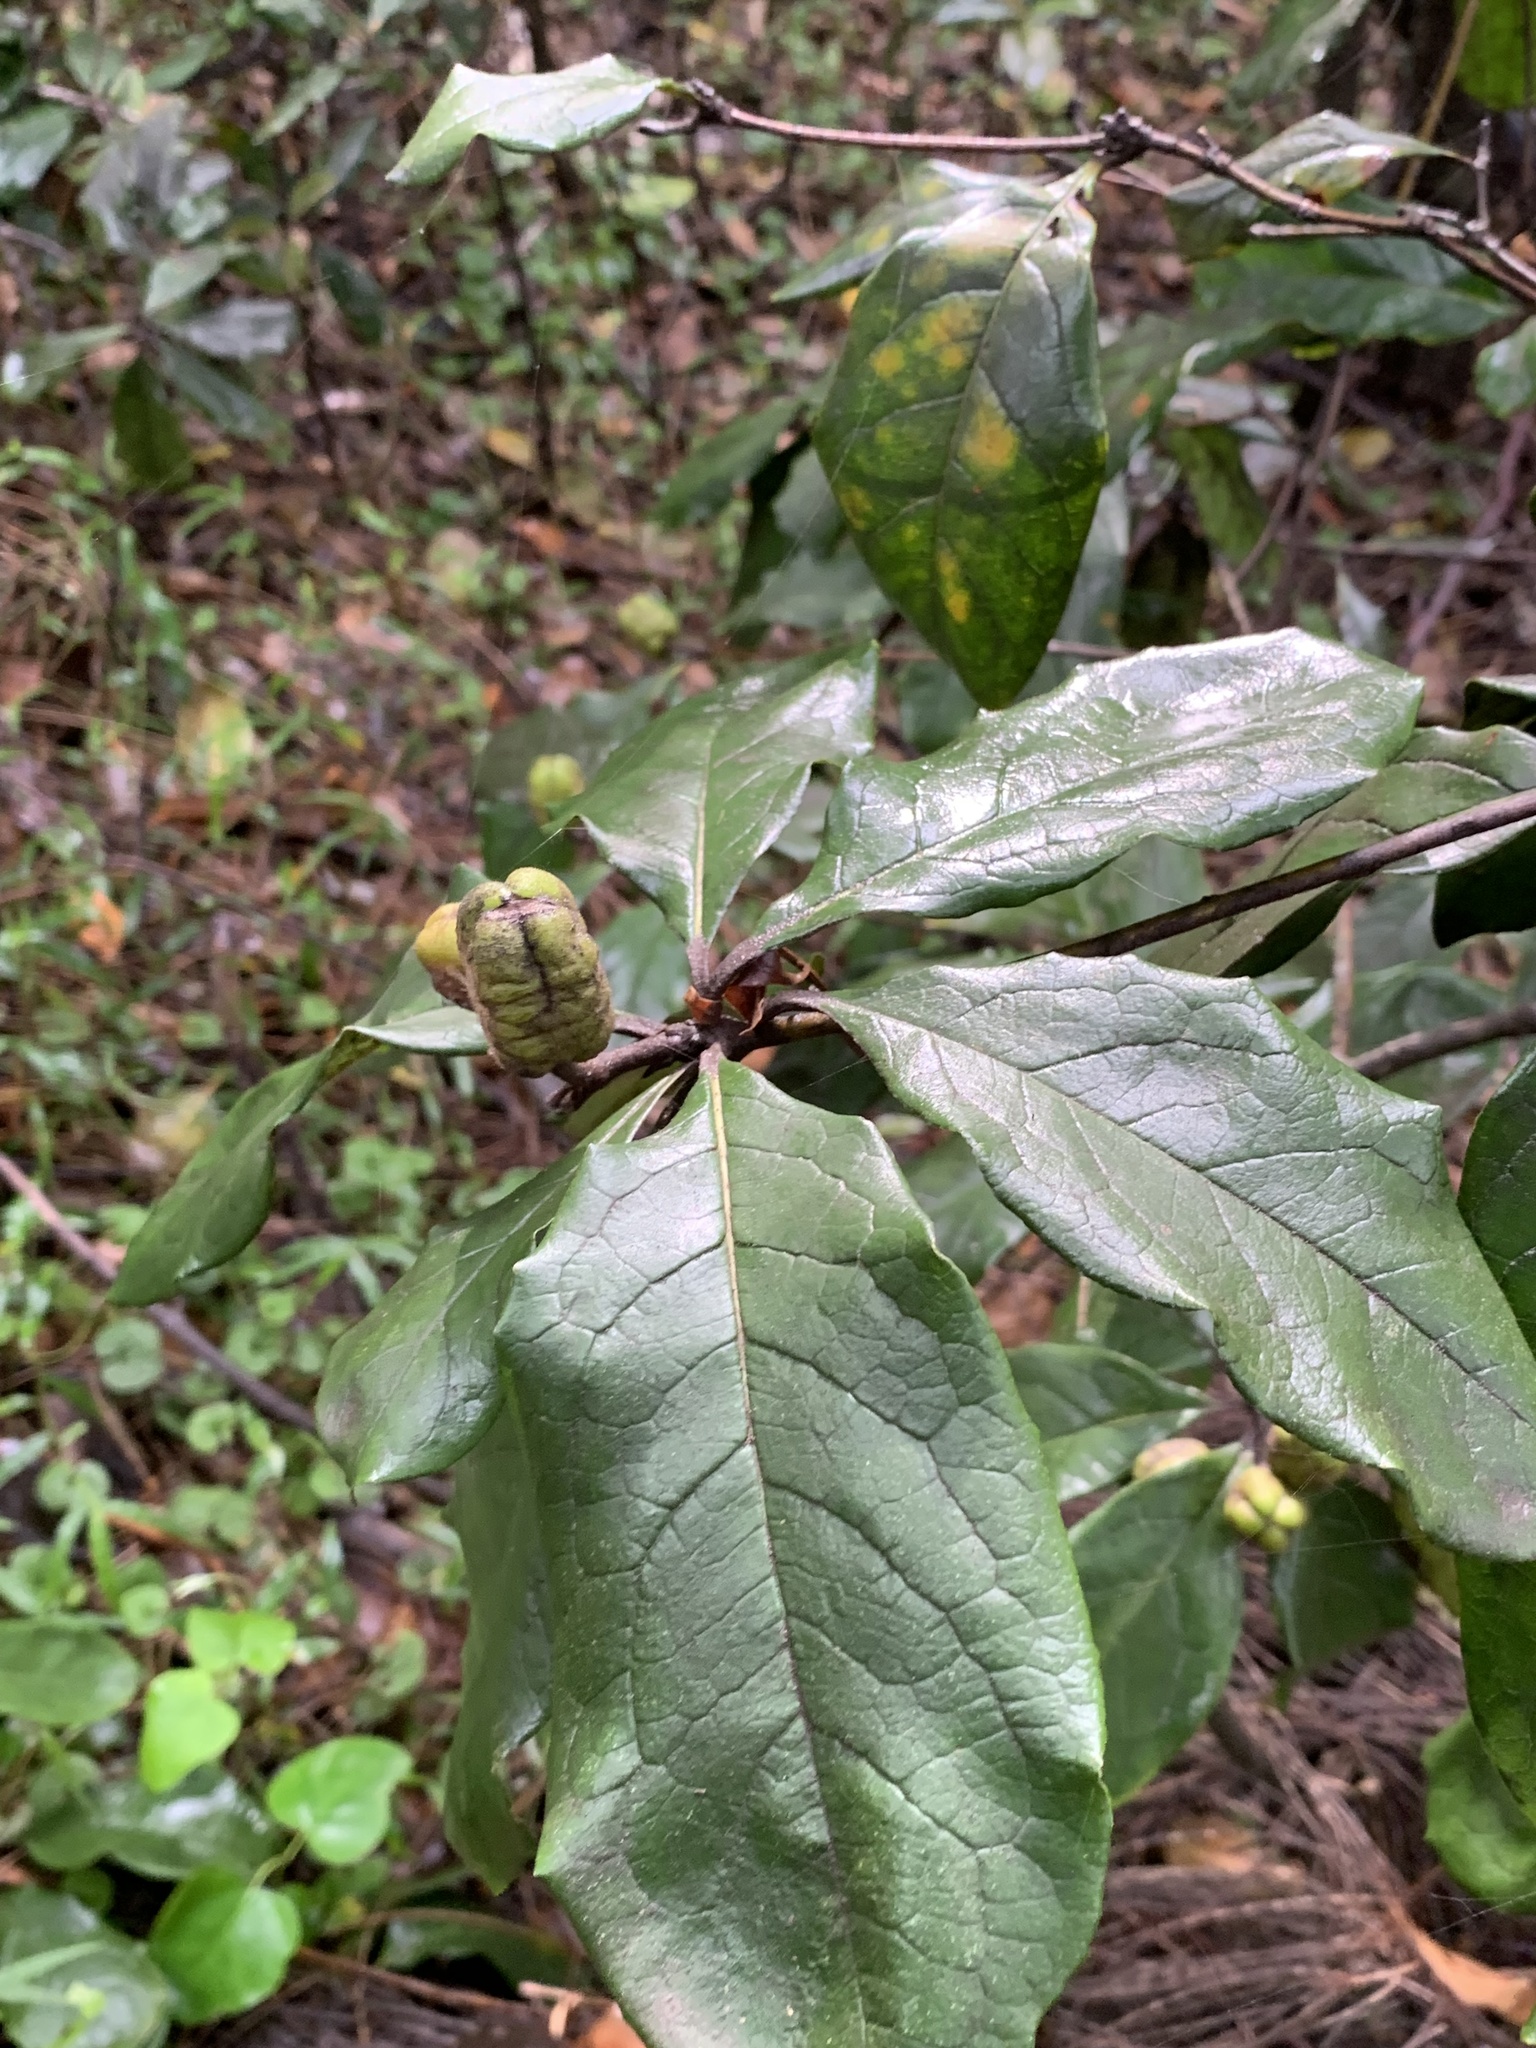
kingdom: Plantae
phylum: Tracheophyta
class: Magnoliopsida
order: Apiales
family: Pittosporaceae
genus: Pittosporum
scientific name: Pittosporum revolutum
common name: Brisbane-laurel
